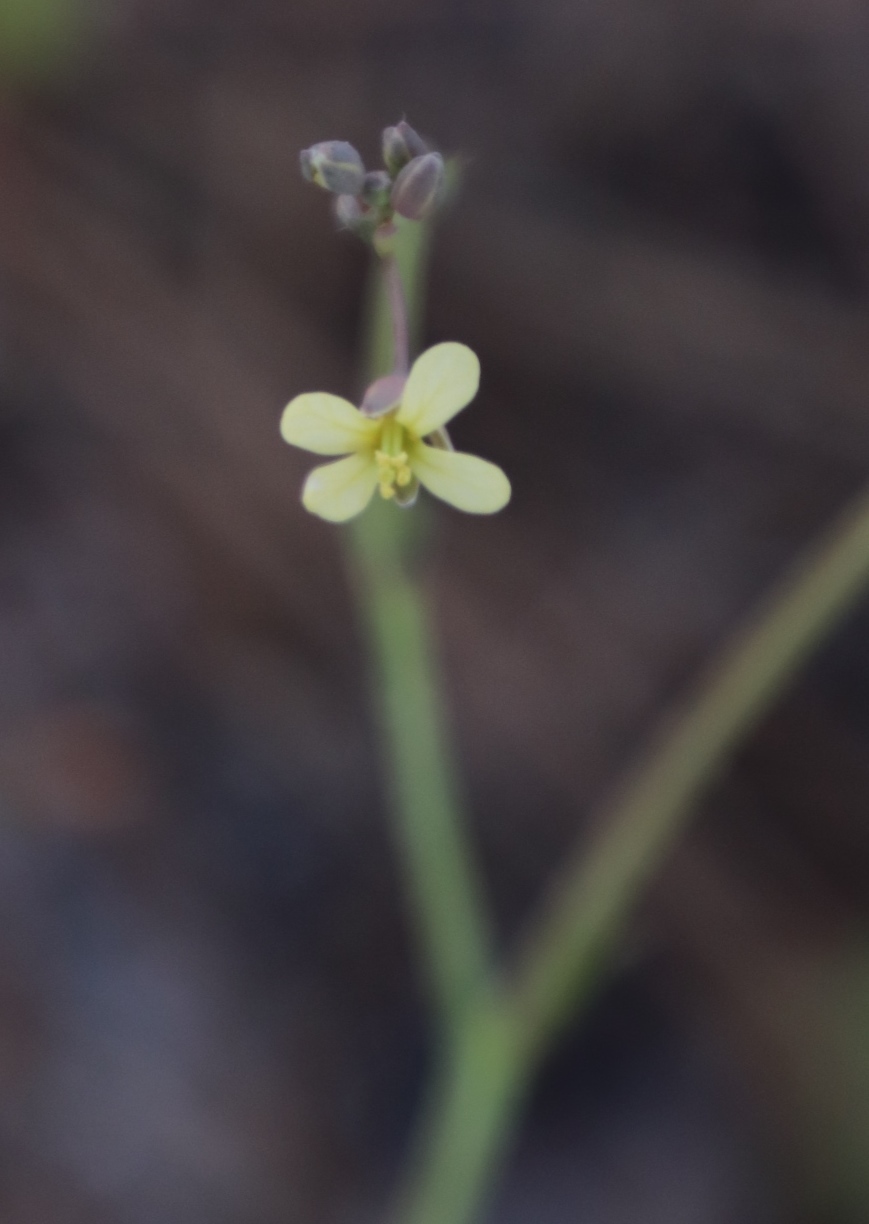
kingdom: Plantae
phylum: Tracheophyta
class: Magnoliopsida
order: Brassicales
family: Brassicaceae
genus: Brassica
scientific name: Brassica tournefortii
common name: Pale cabbage
